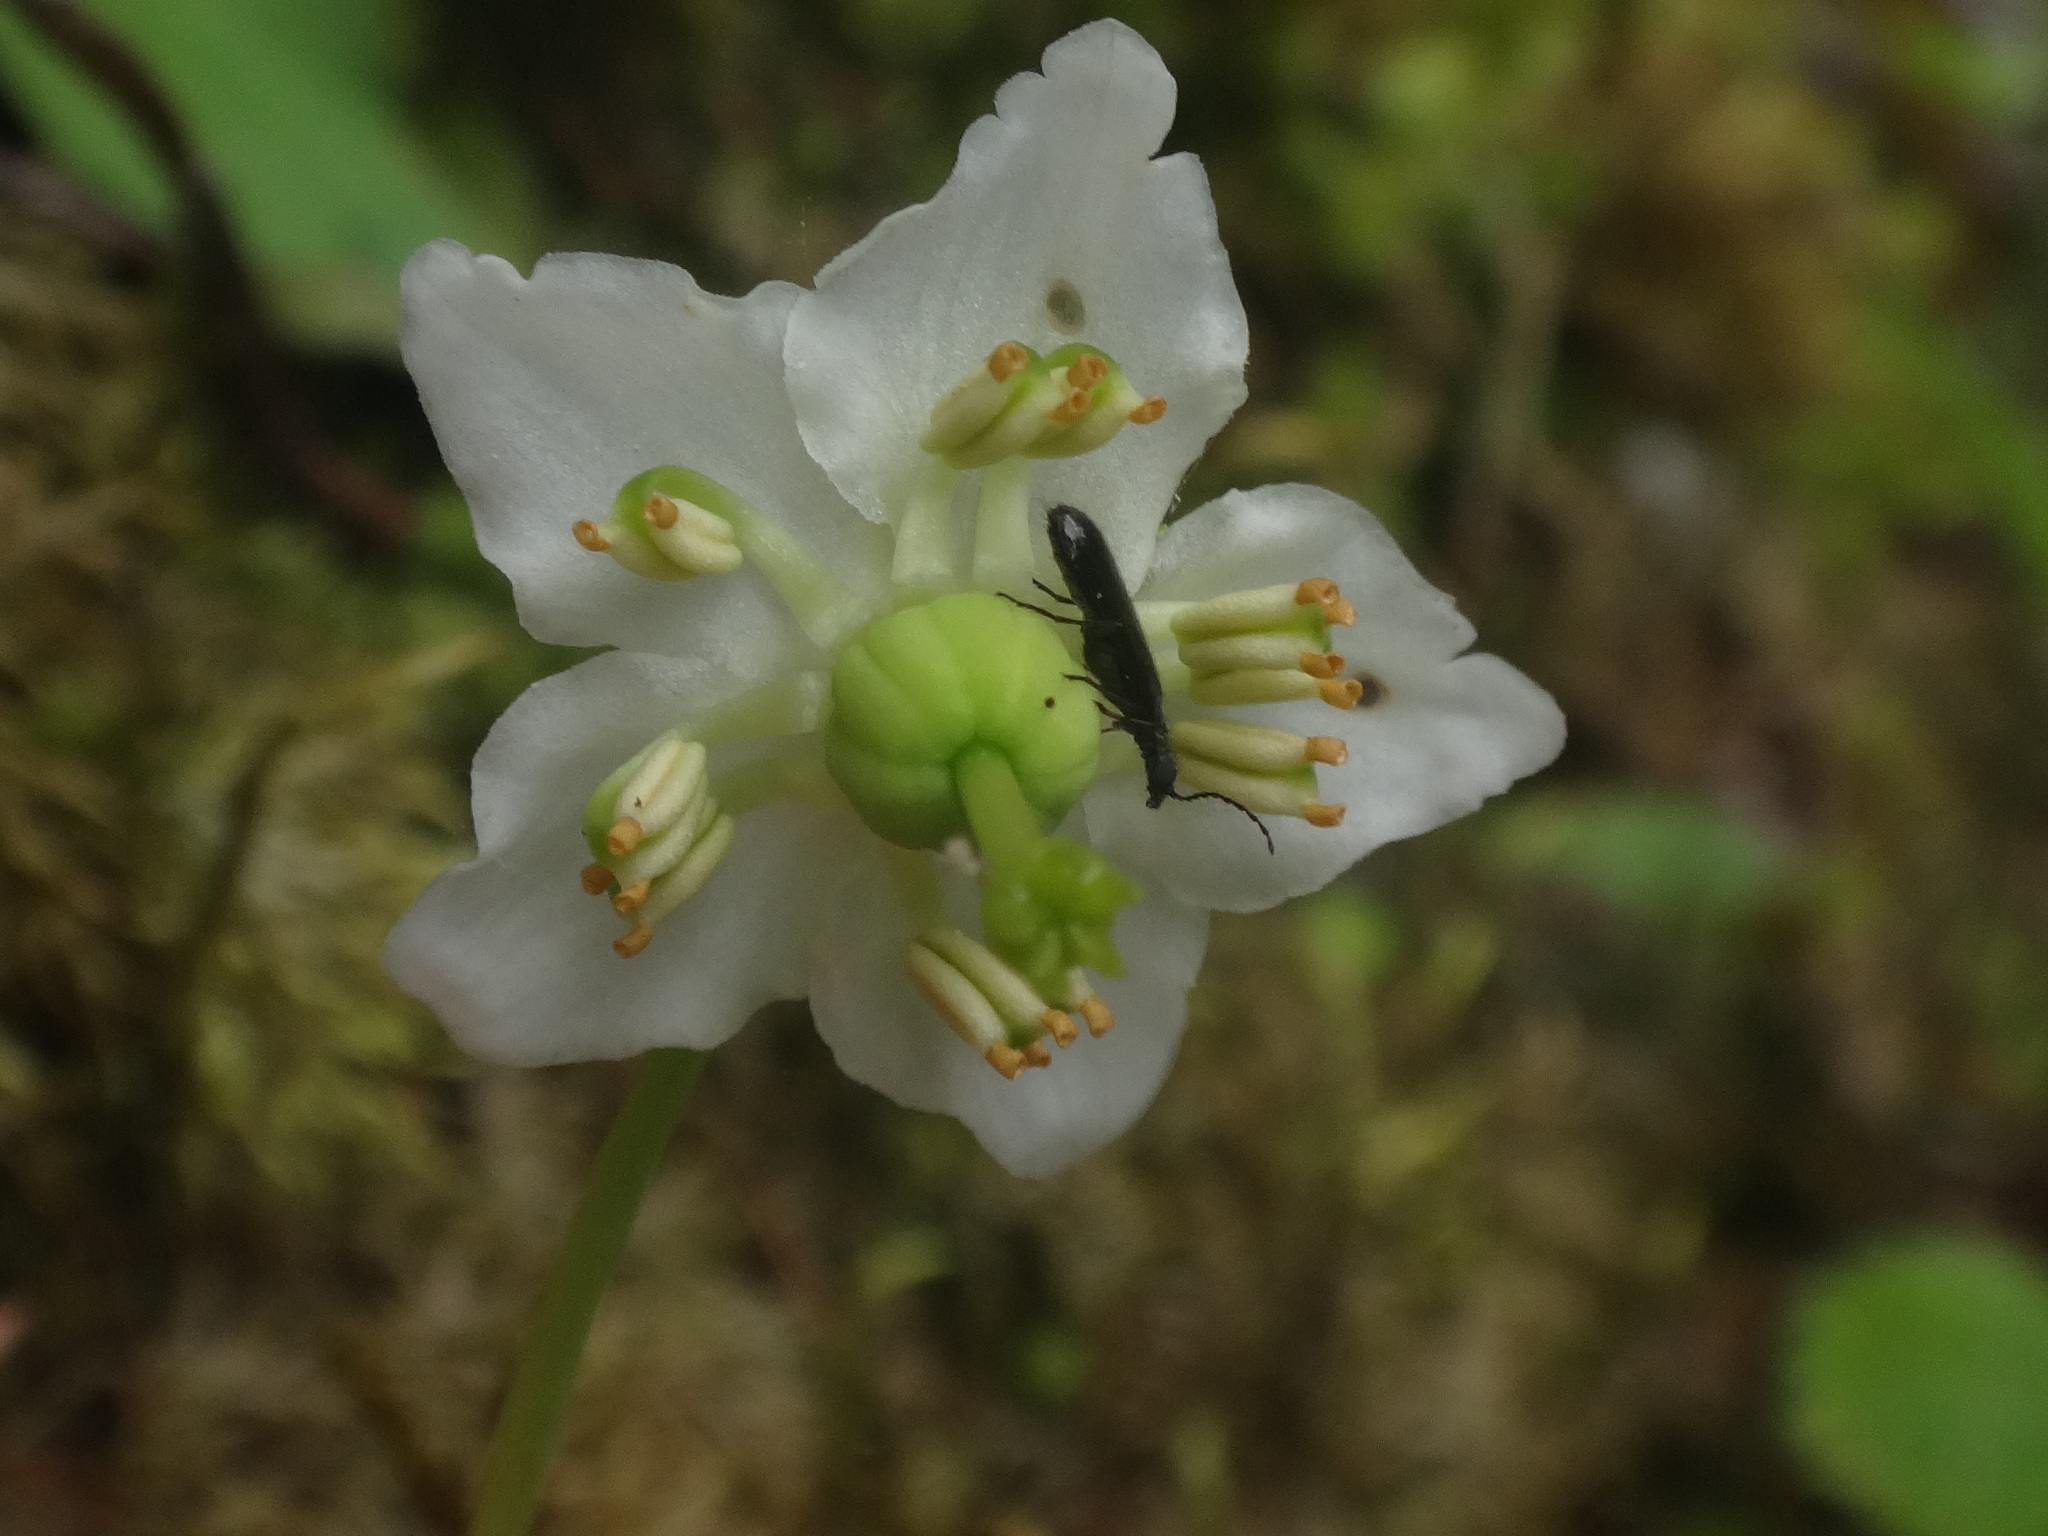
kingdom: Plantae
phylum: Tracheophyta
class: Magnoliopsida
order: Ericales
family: Ericaceae
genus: Moneses
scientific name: Moneses uniflora
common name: One-flowered wintergreen
